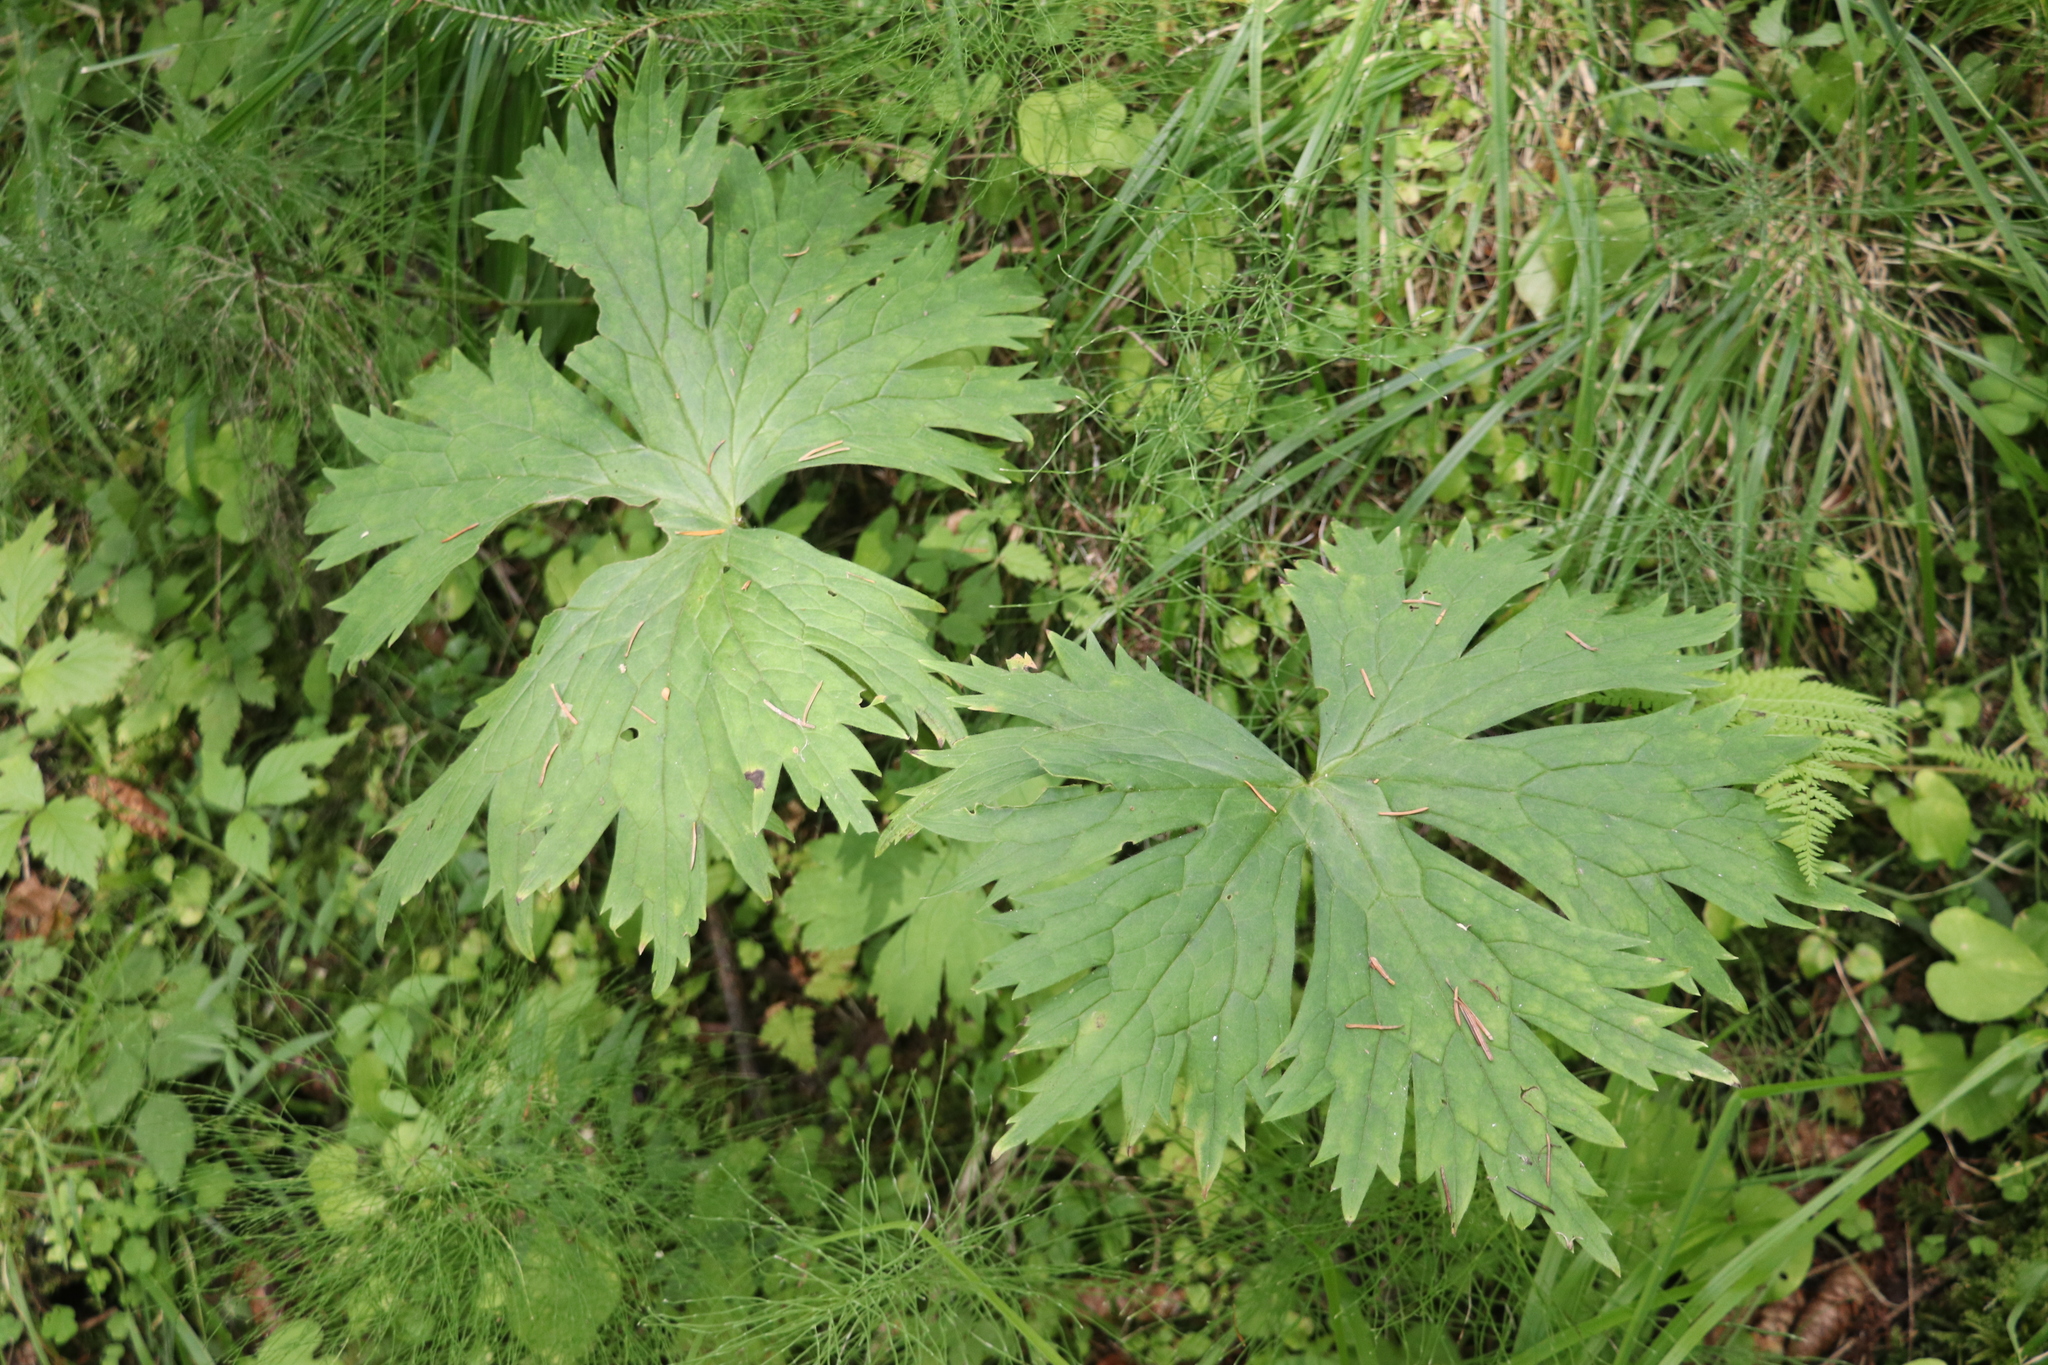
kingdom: Plantae
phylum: Tracheophyta
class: Magnoliopsida
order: Ranunculales
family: Ranunculaceae
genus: Aconitum
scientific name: Aconitum septentrionale
